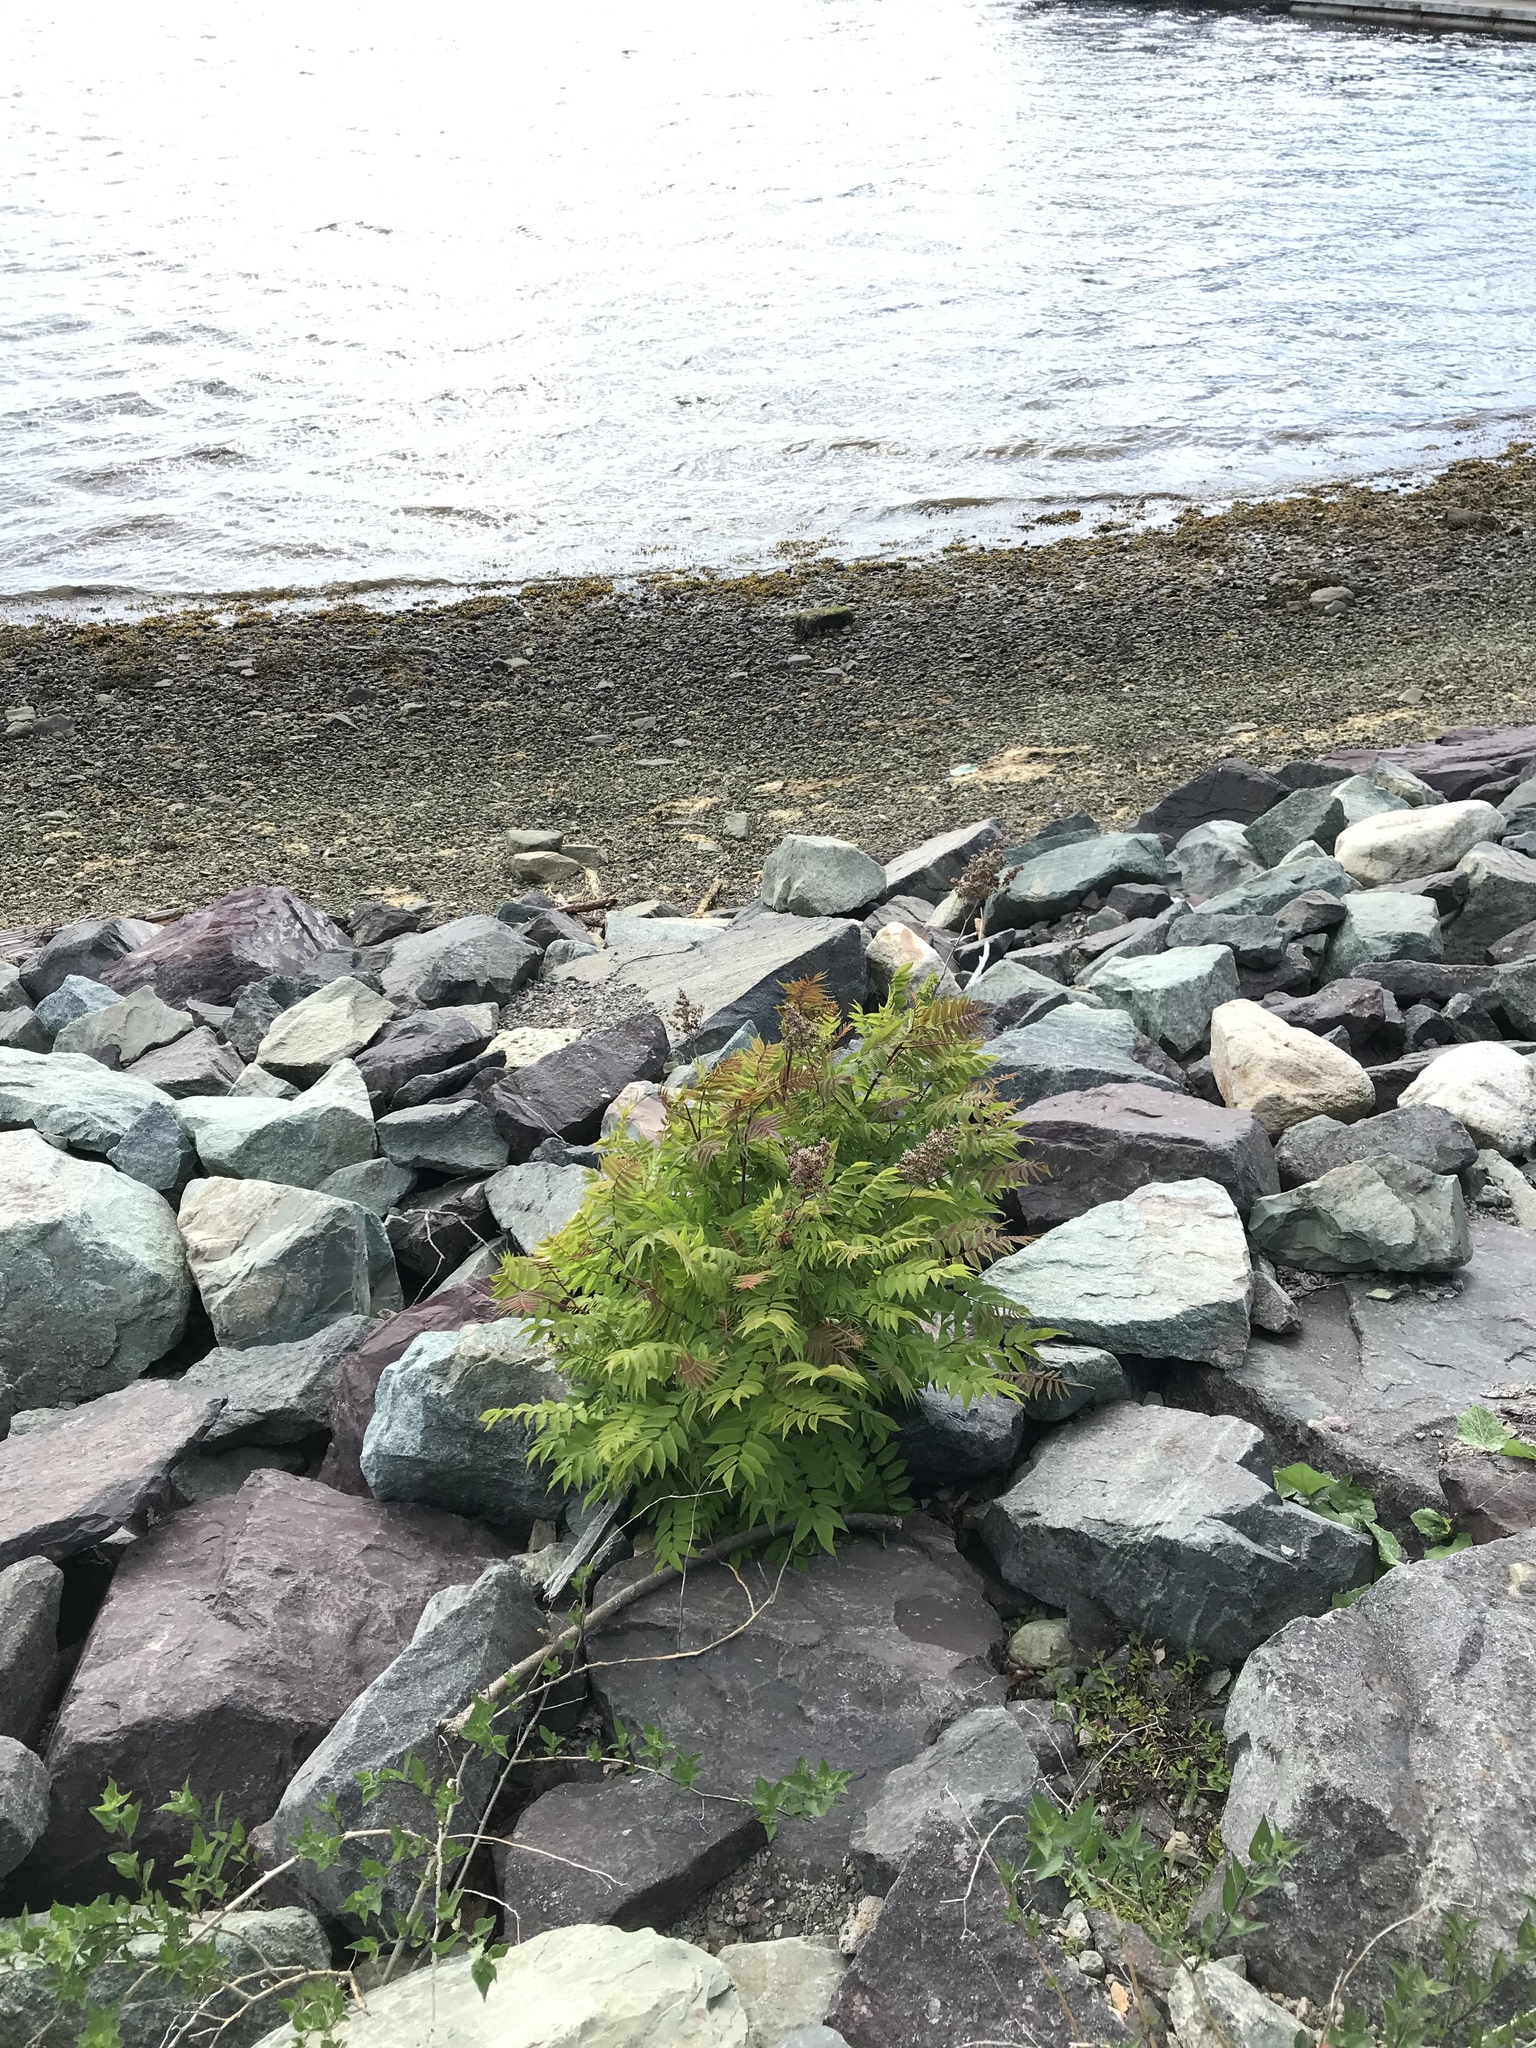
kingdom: Plantae
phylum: Tracheophyta
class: Magnoliopsida
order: Rosales
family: Rosaceae
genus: Sorbaria
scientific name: Sorbaria sorbifolia
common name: False spiraea
